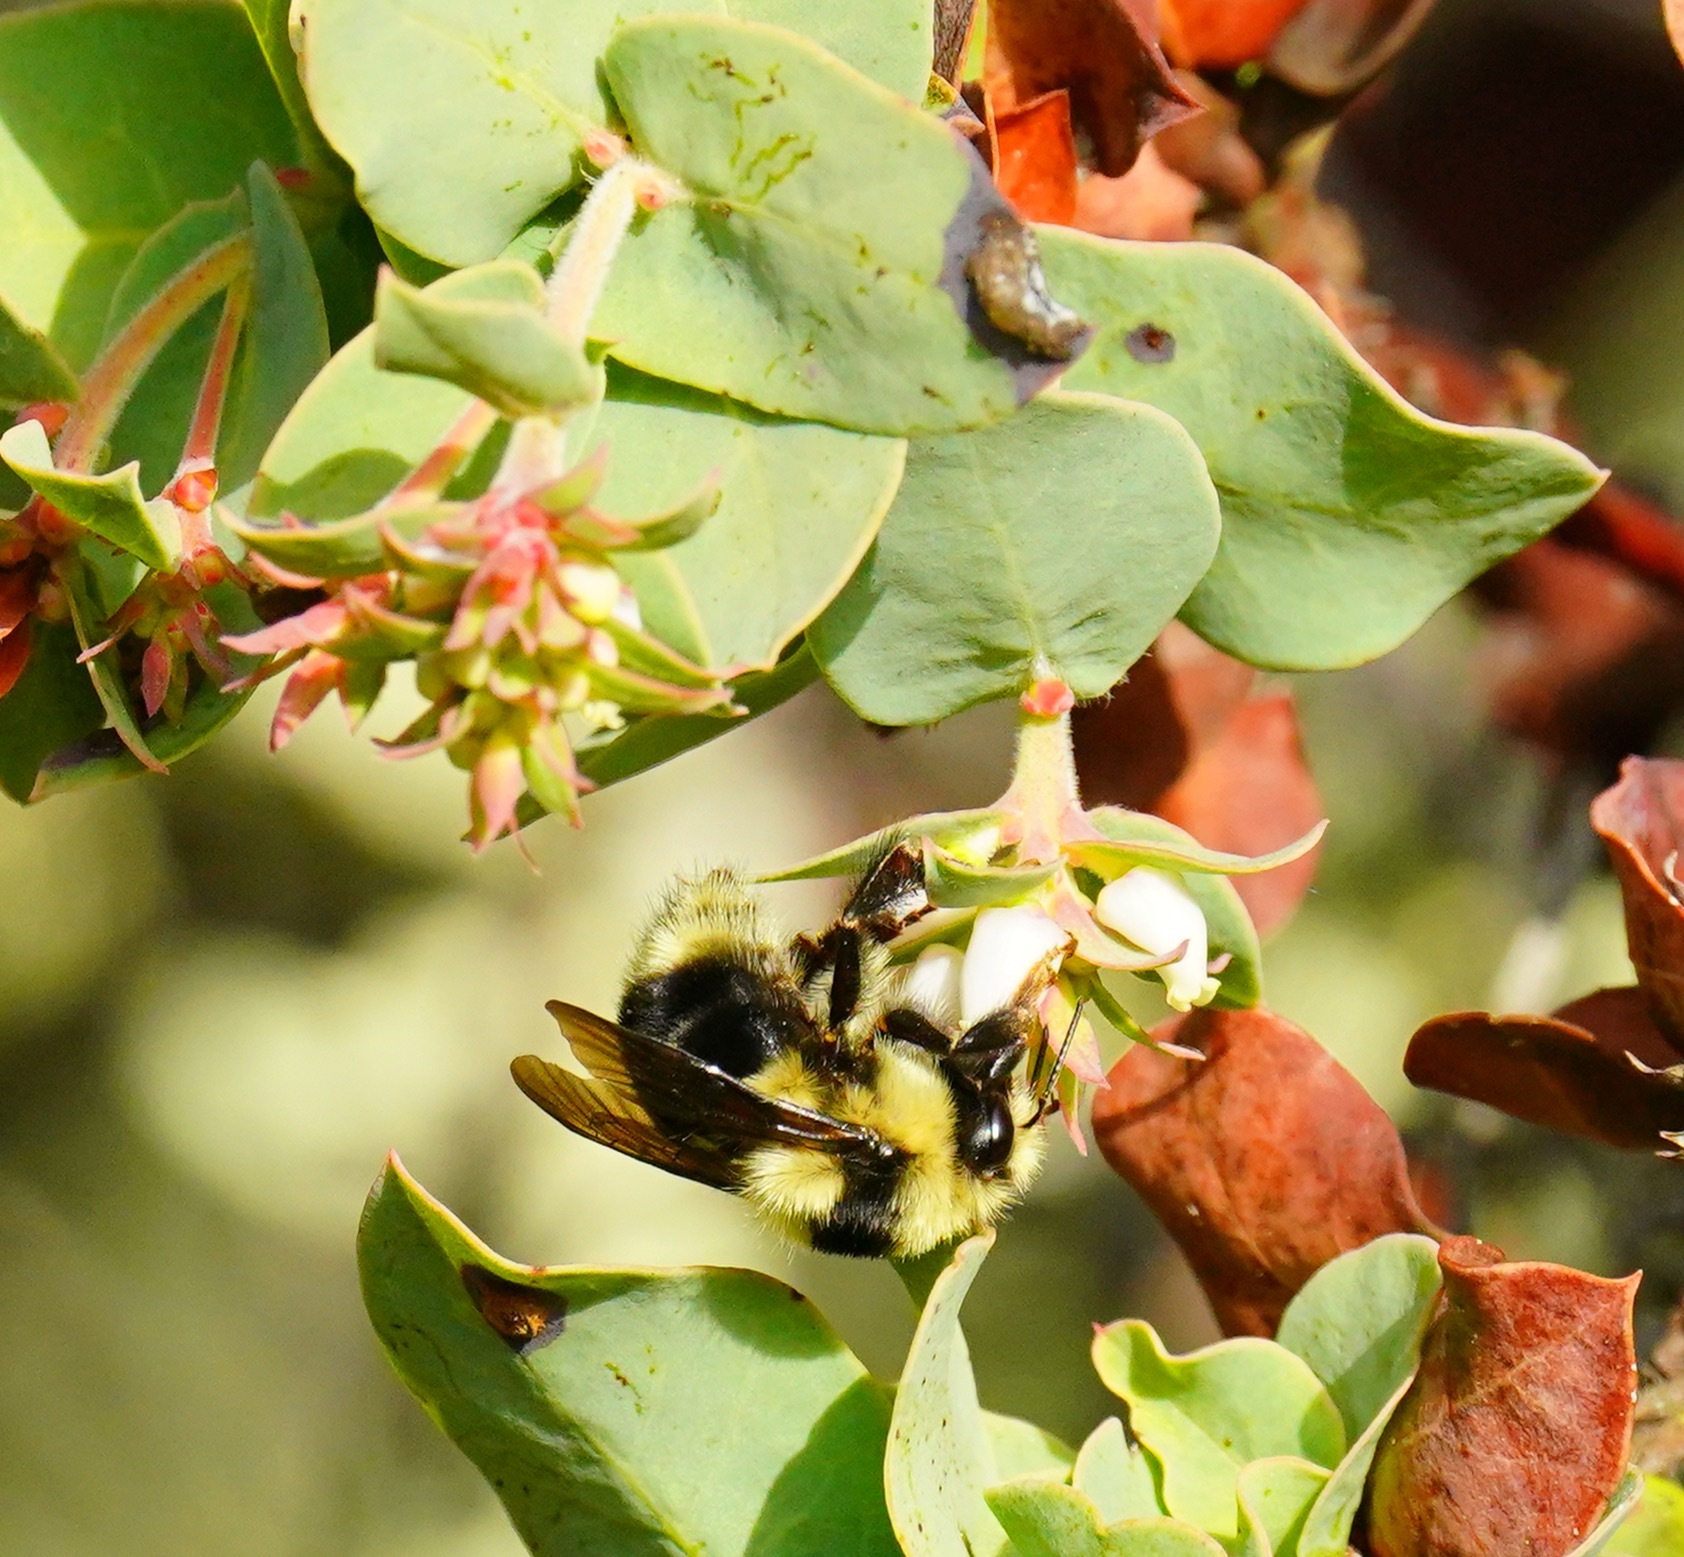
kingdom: Animalia
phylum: Arthropoda
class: Insecta
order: Hymenoptera
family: Apidae
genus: Bombus
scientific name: Bombus melanopygus
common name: Black tail bumble bee
